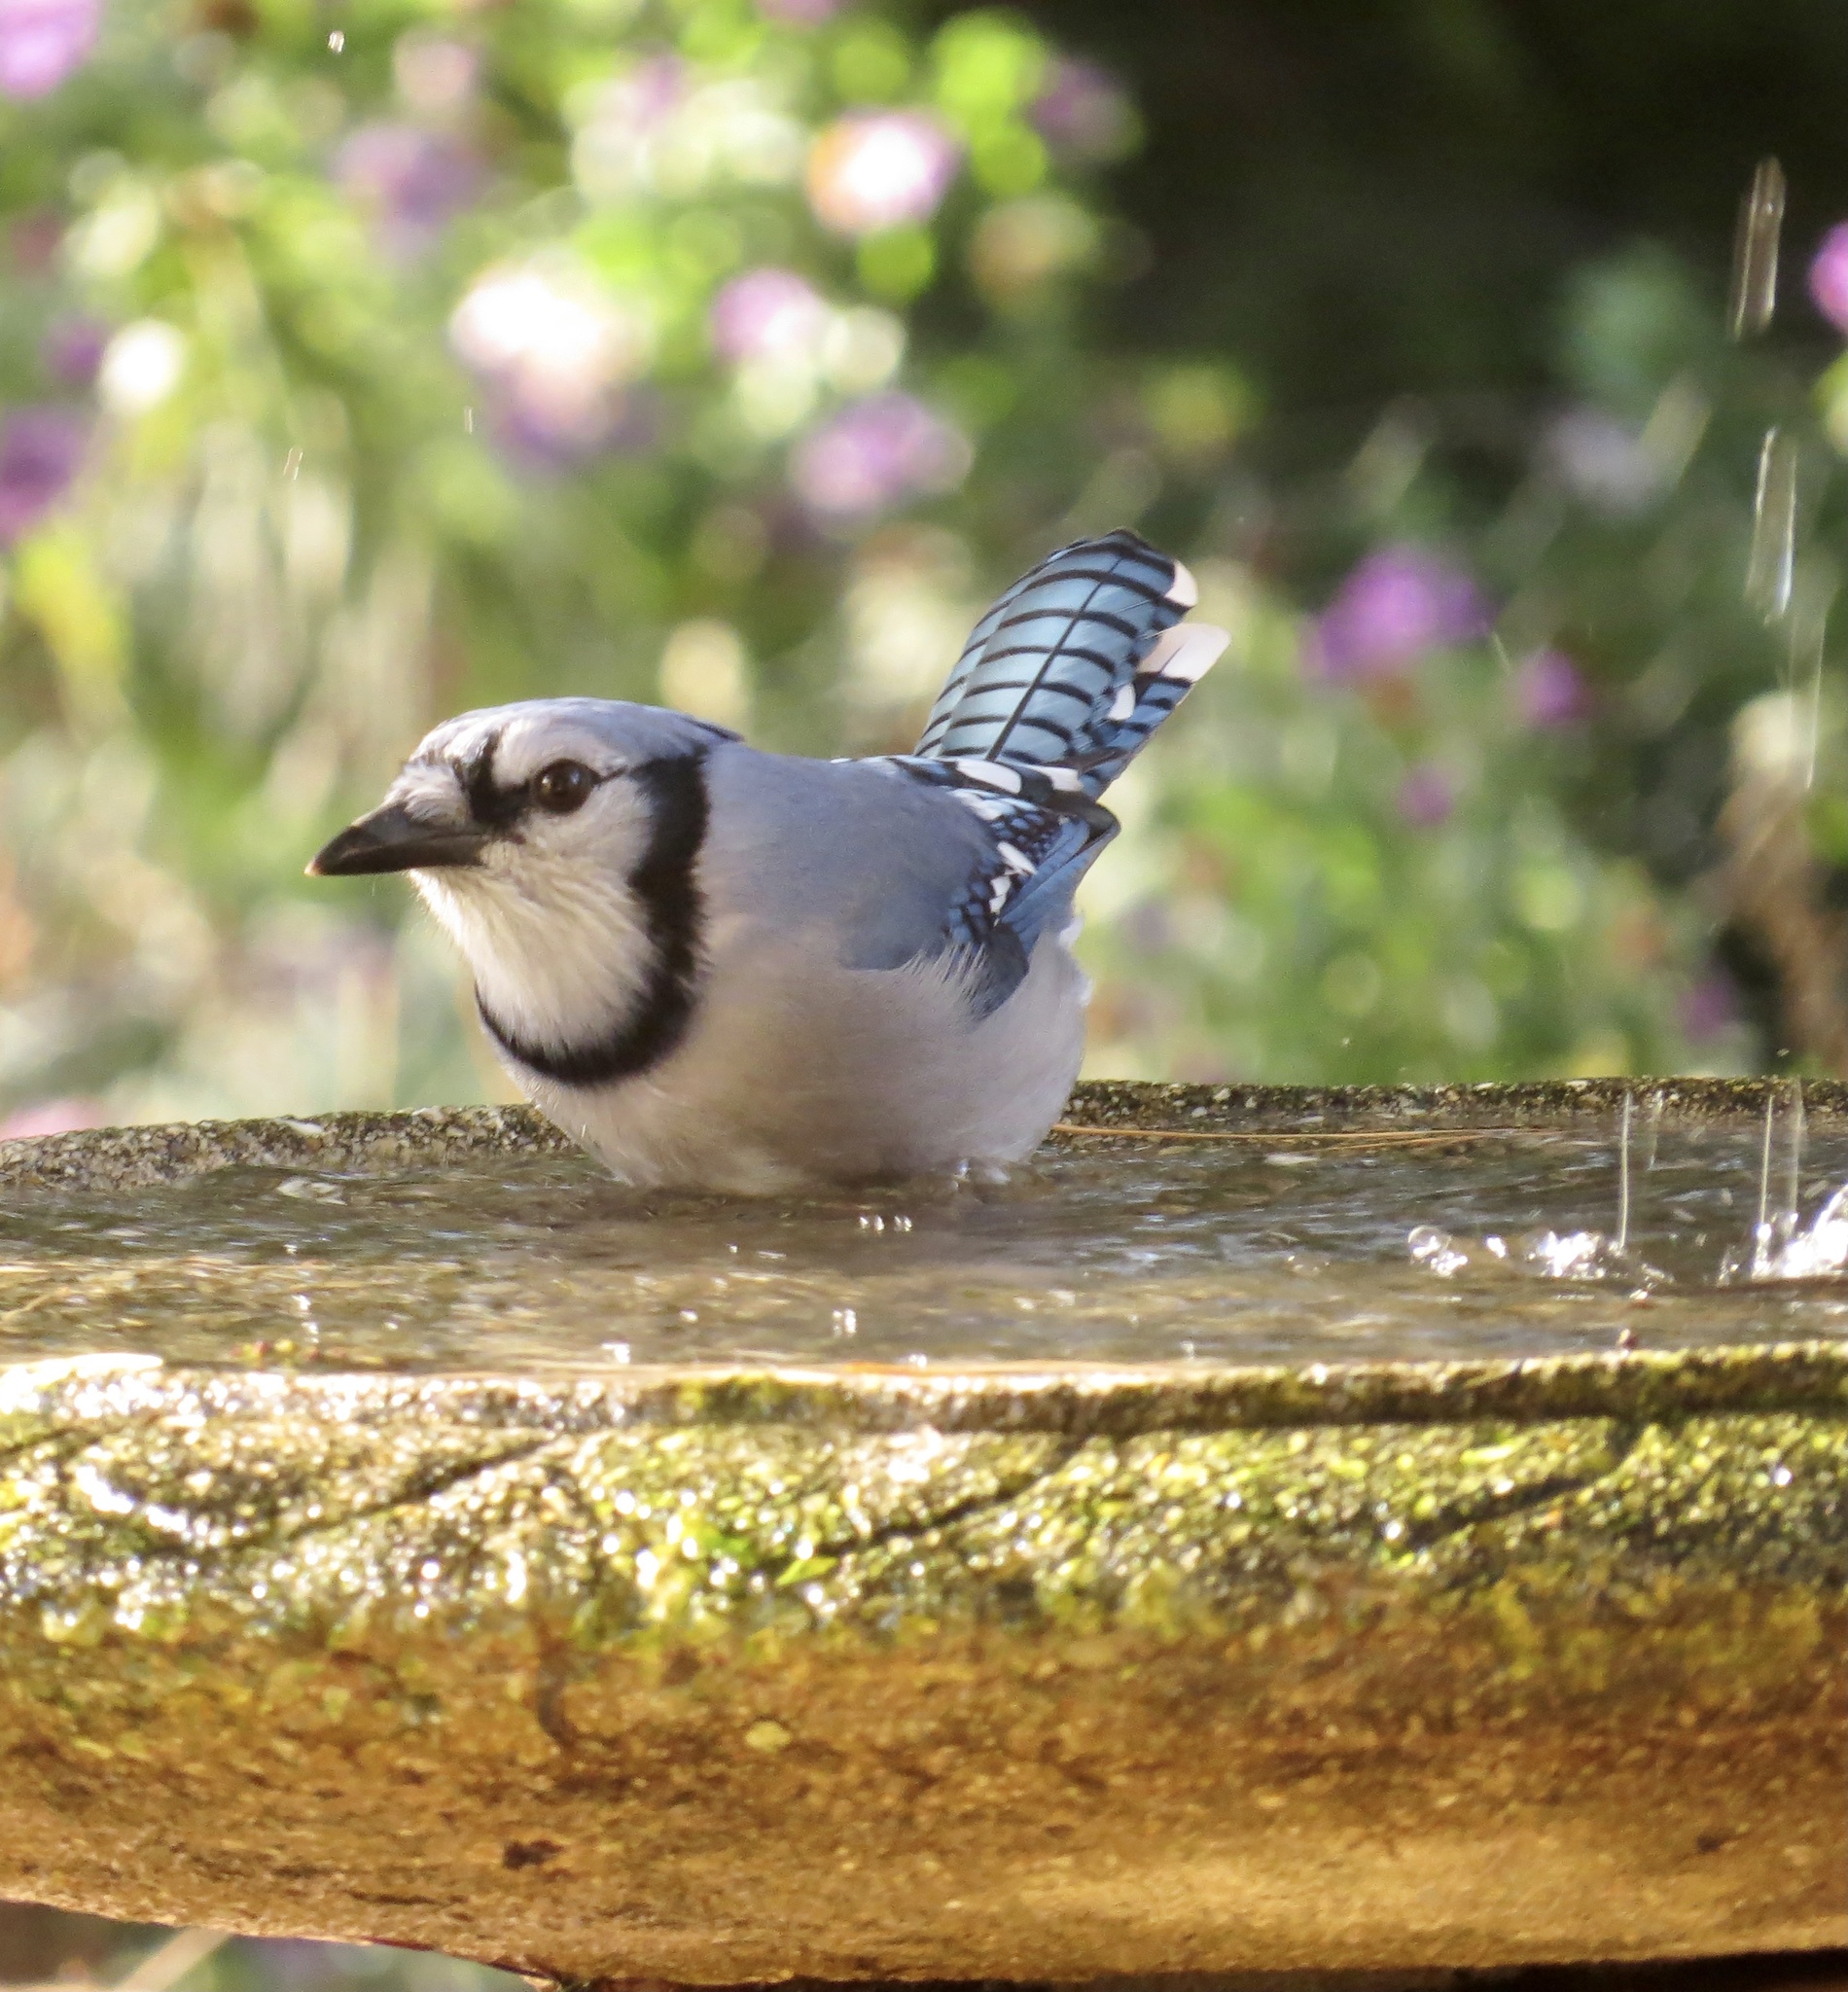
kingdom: Animalia
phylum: Chordata
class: Aves
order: Passeriformes
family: Corvidae
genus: Cyanocitta
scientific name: Cyanocitta cristata
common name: Blue jay
